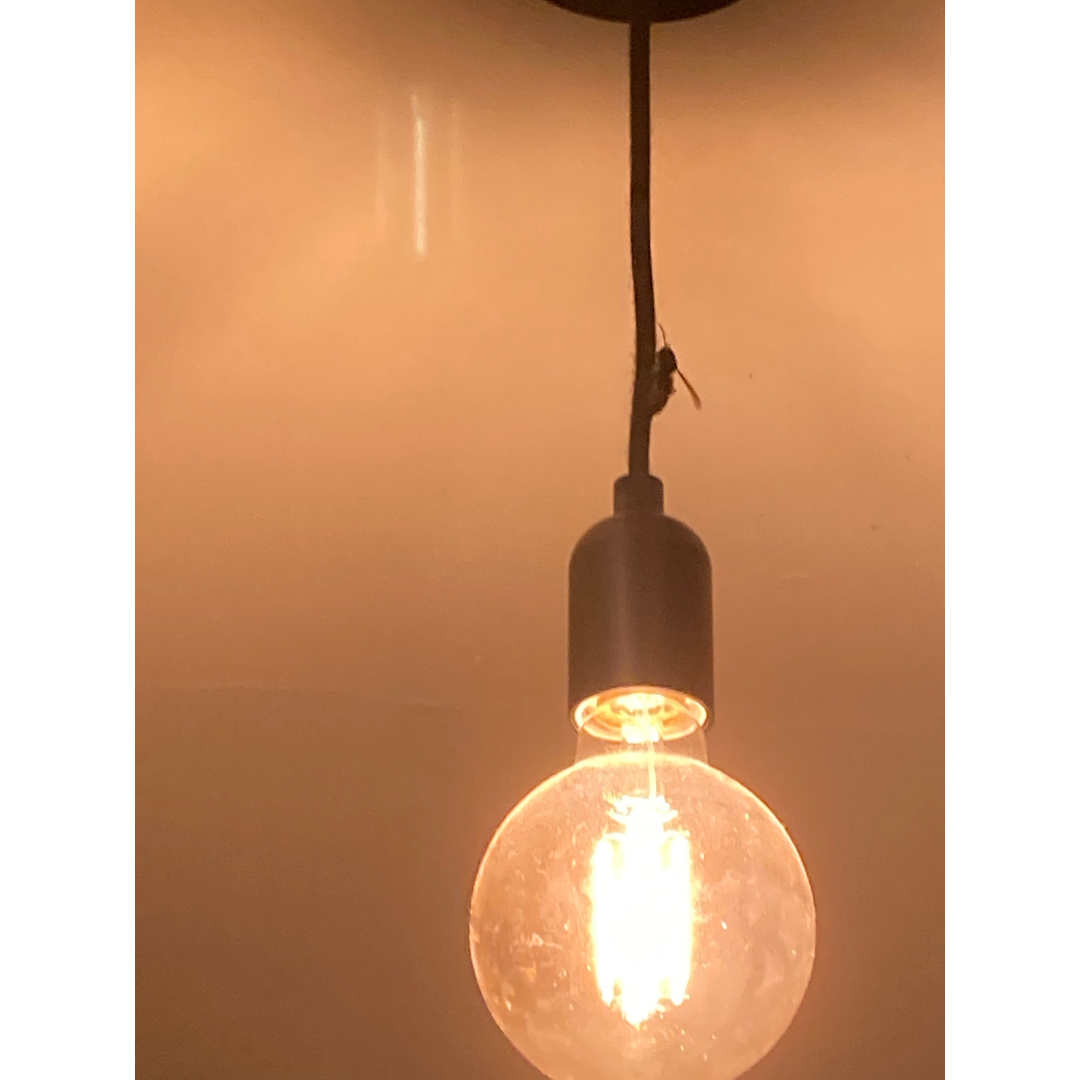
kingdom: Animalia
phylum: Arthropoda
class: Insecta
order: Hymenoptera
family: Vespidae
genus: Vespa
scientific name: Vespa crabro
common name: Hornet
